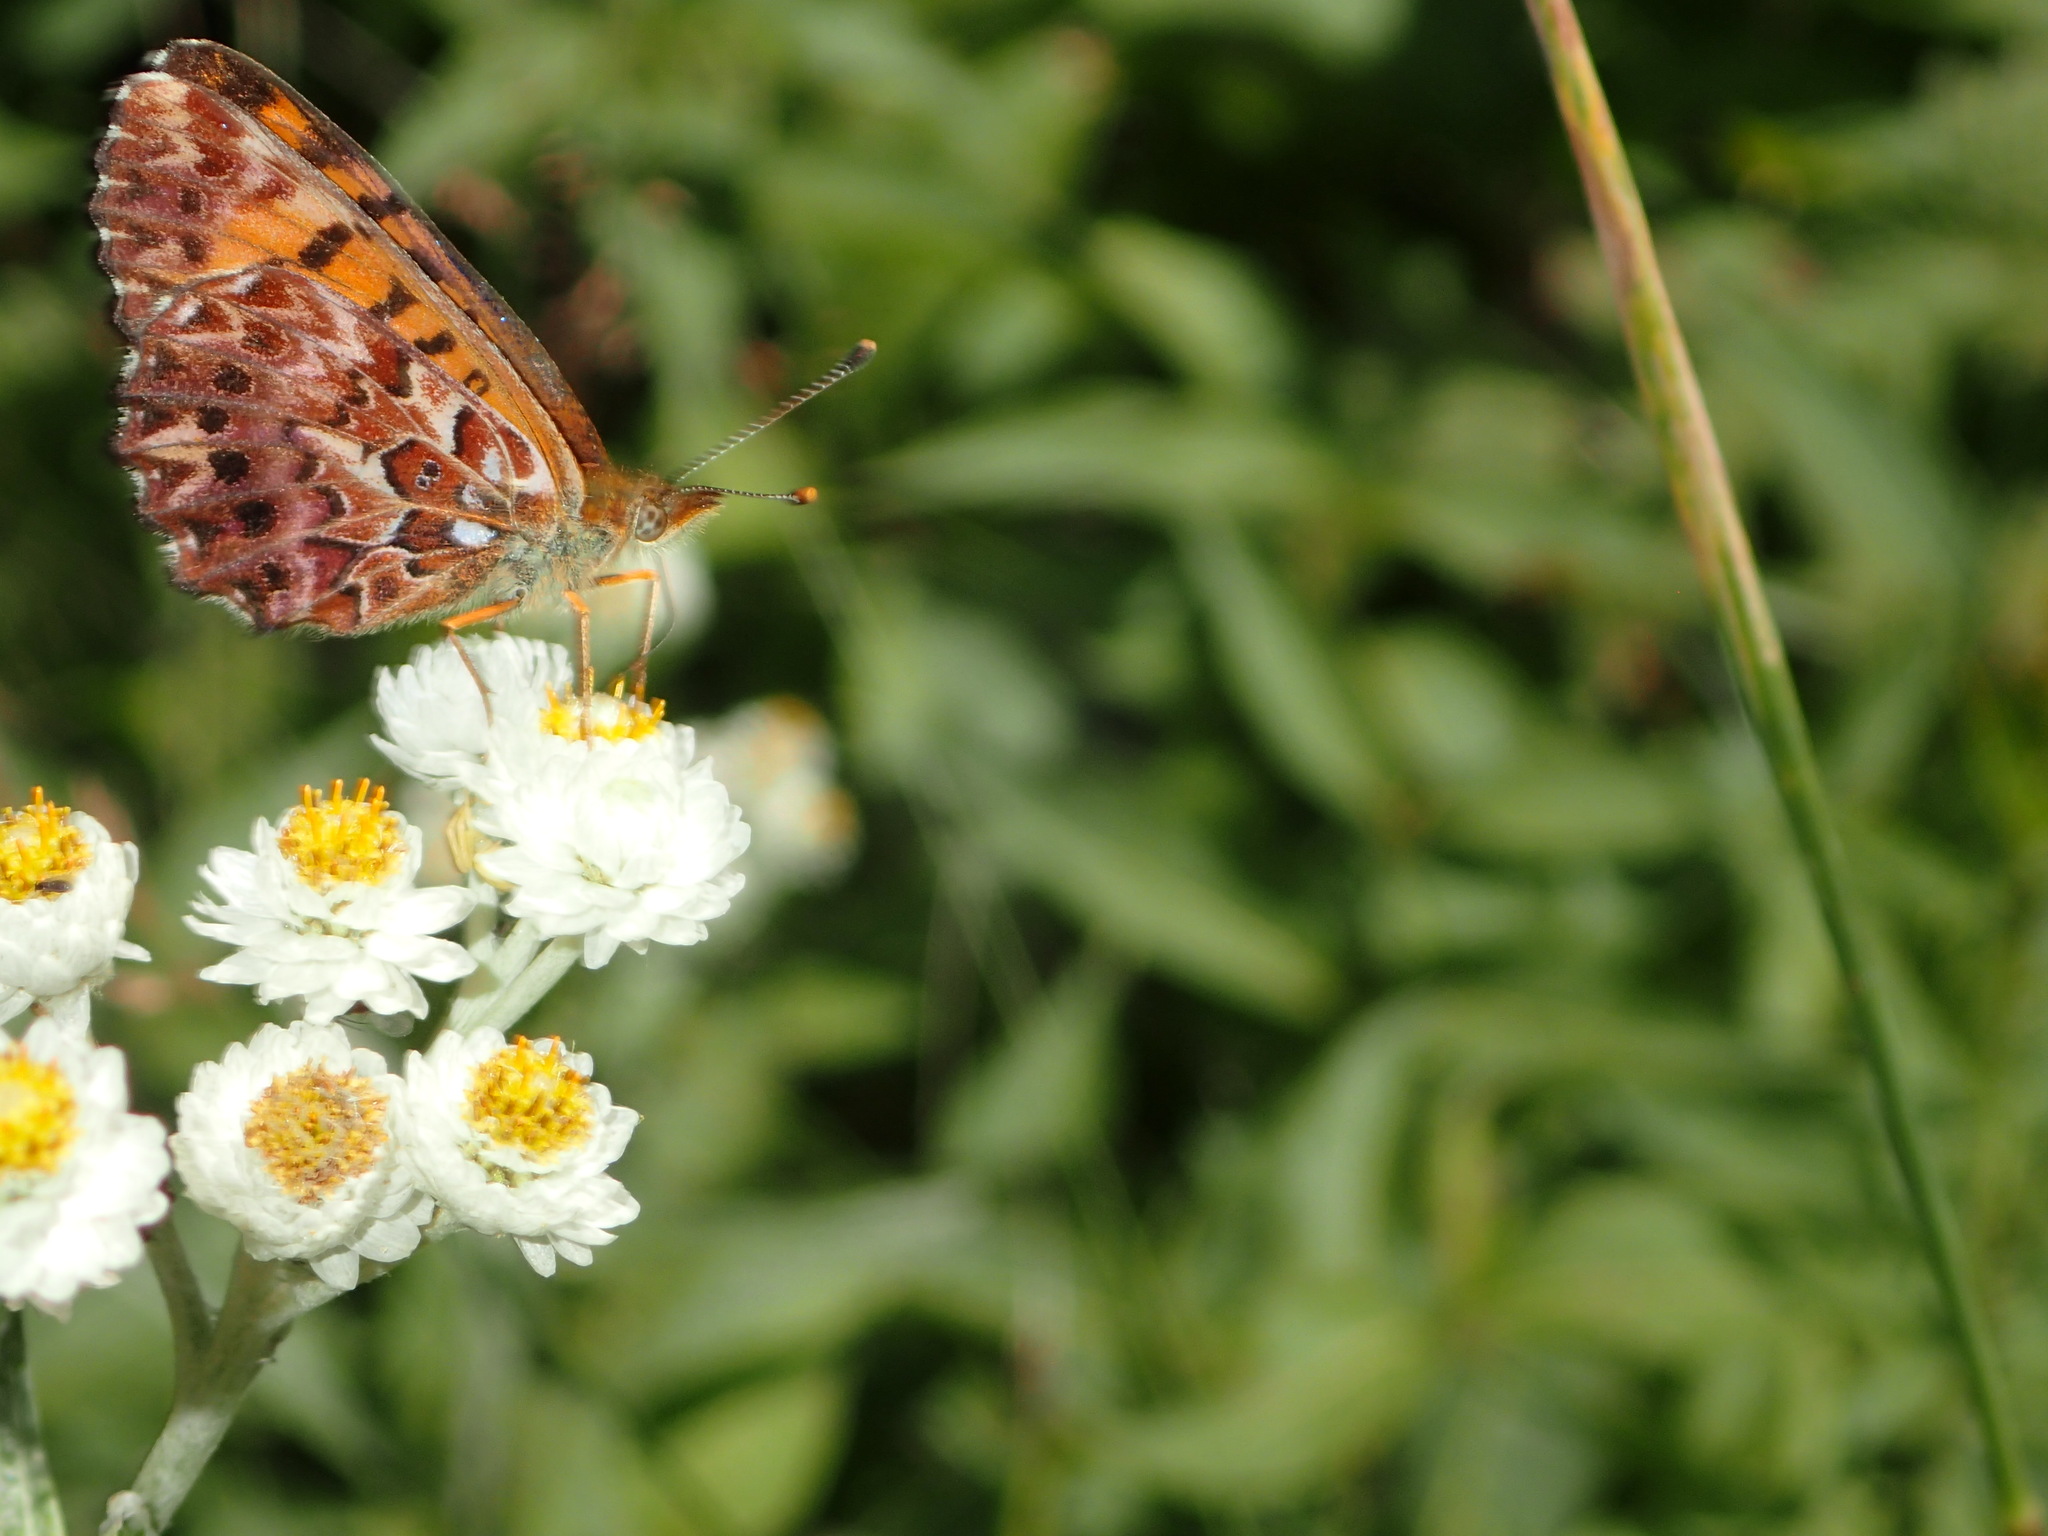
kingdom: Animalia
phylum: Arthropoda
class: Insecta
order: Lepidoptera
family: Nymphalidae
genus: Boloria
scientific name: Boloria chariclea
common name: Arctic fritillary
